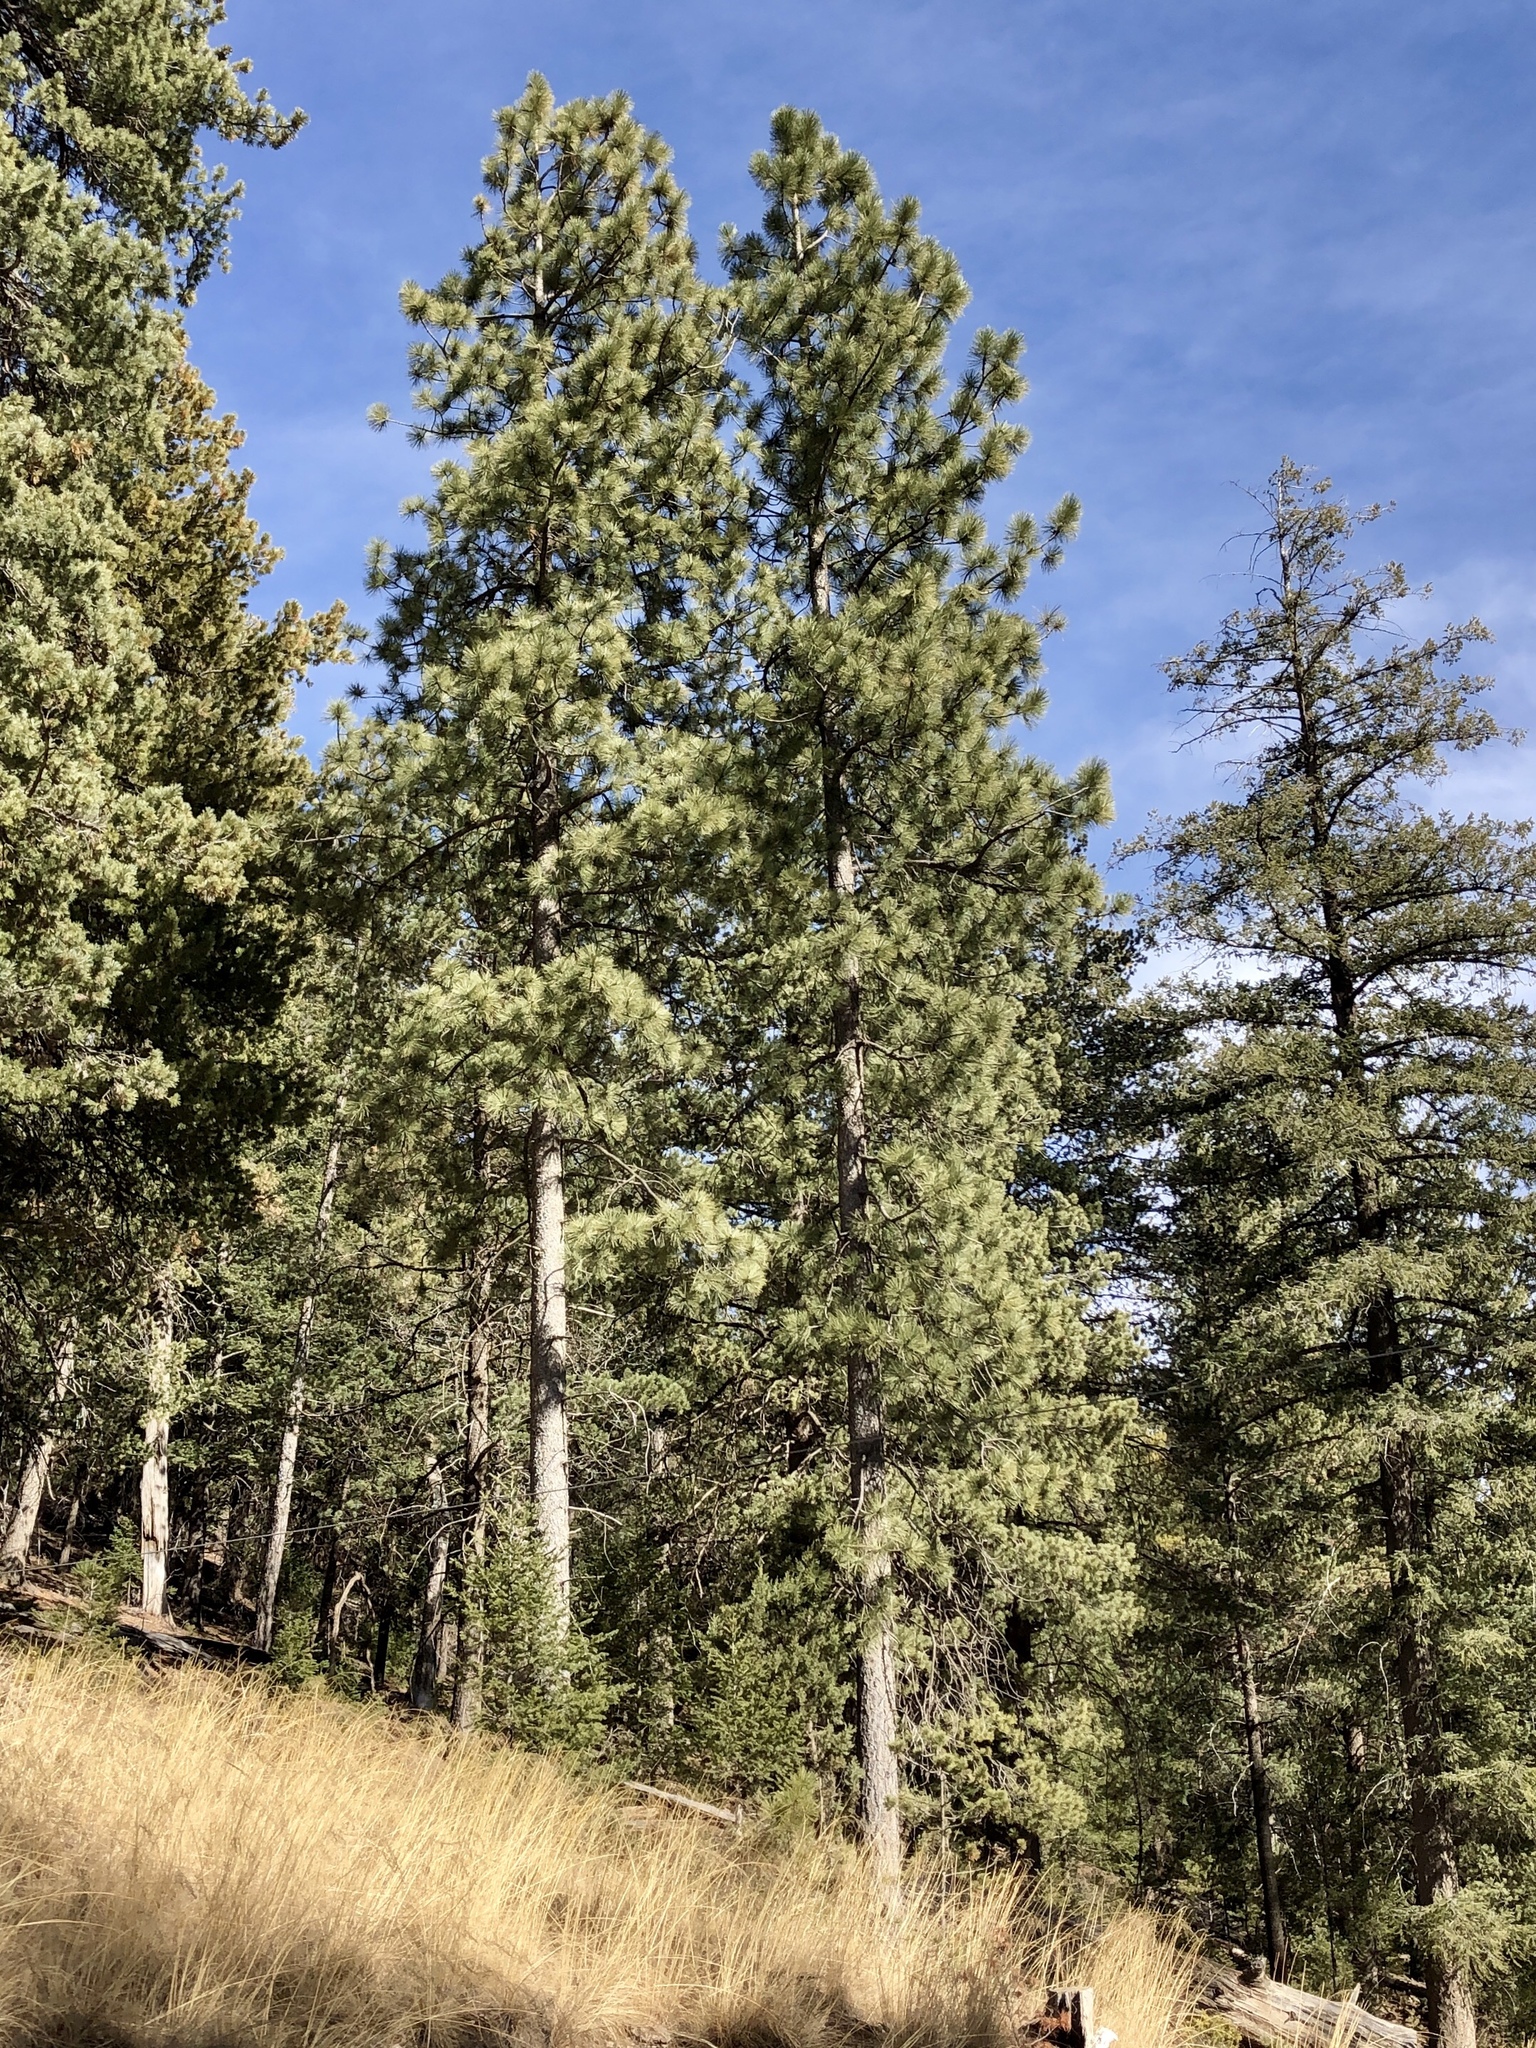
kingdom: Plantae
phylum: Tracheophyta
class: Pinopsida
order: Pinales
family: Pinaceae
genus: Pinus
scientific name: Pinus ponderosa
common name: Western yellow-pine
